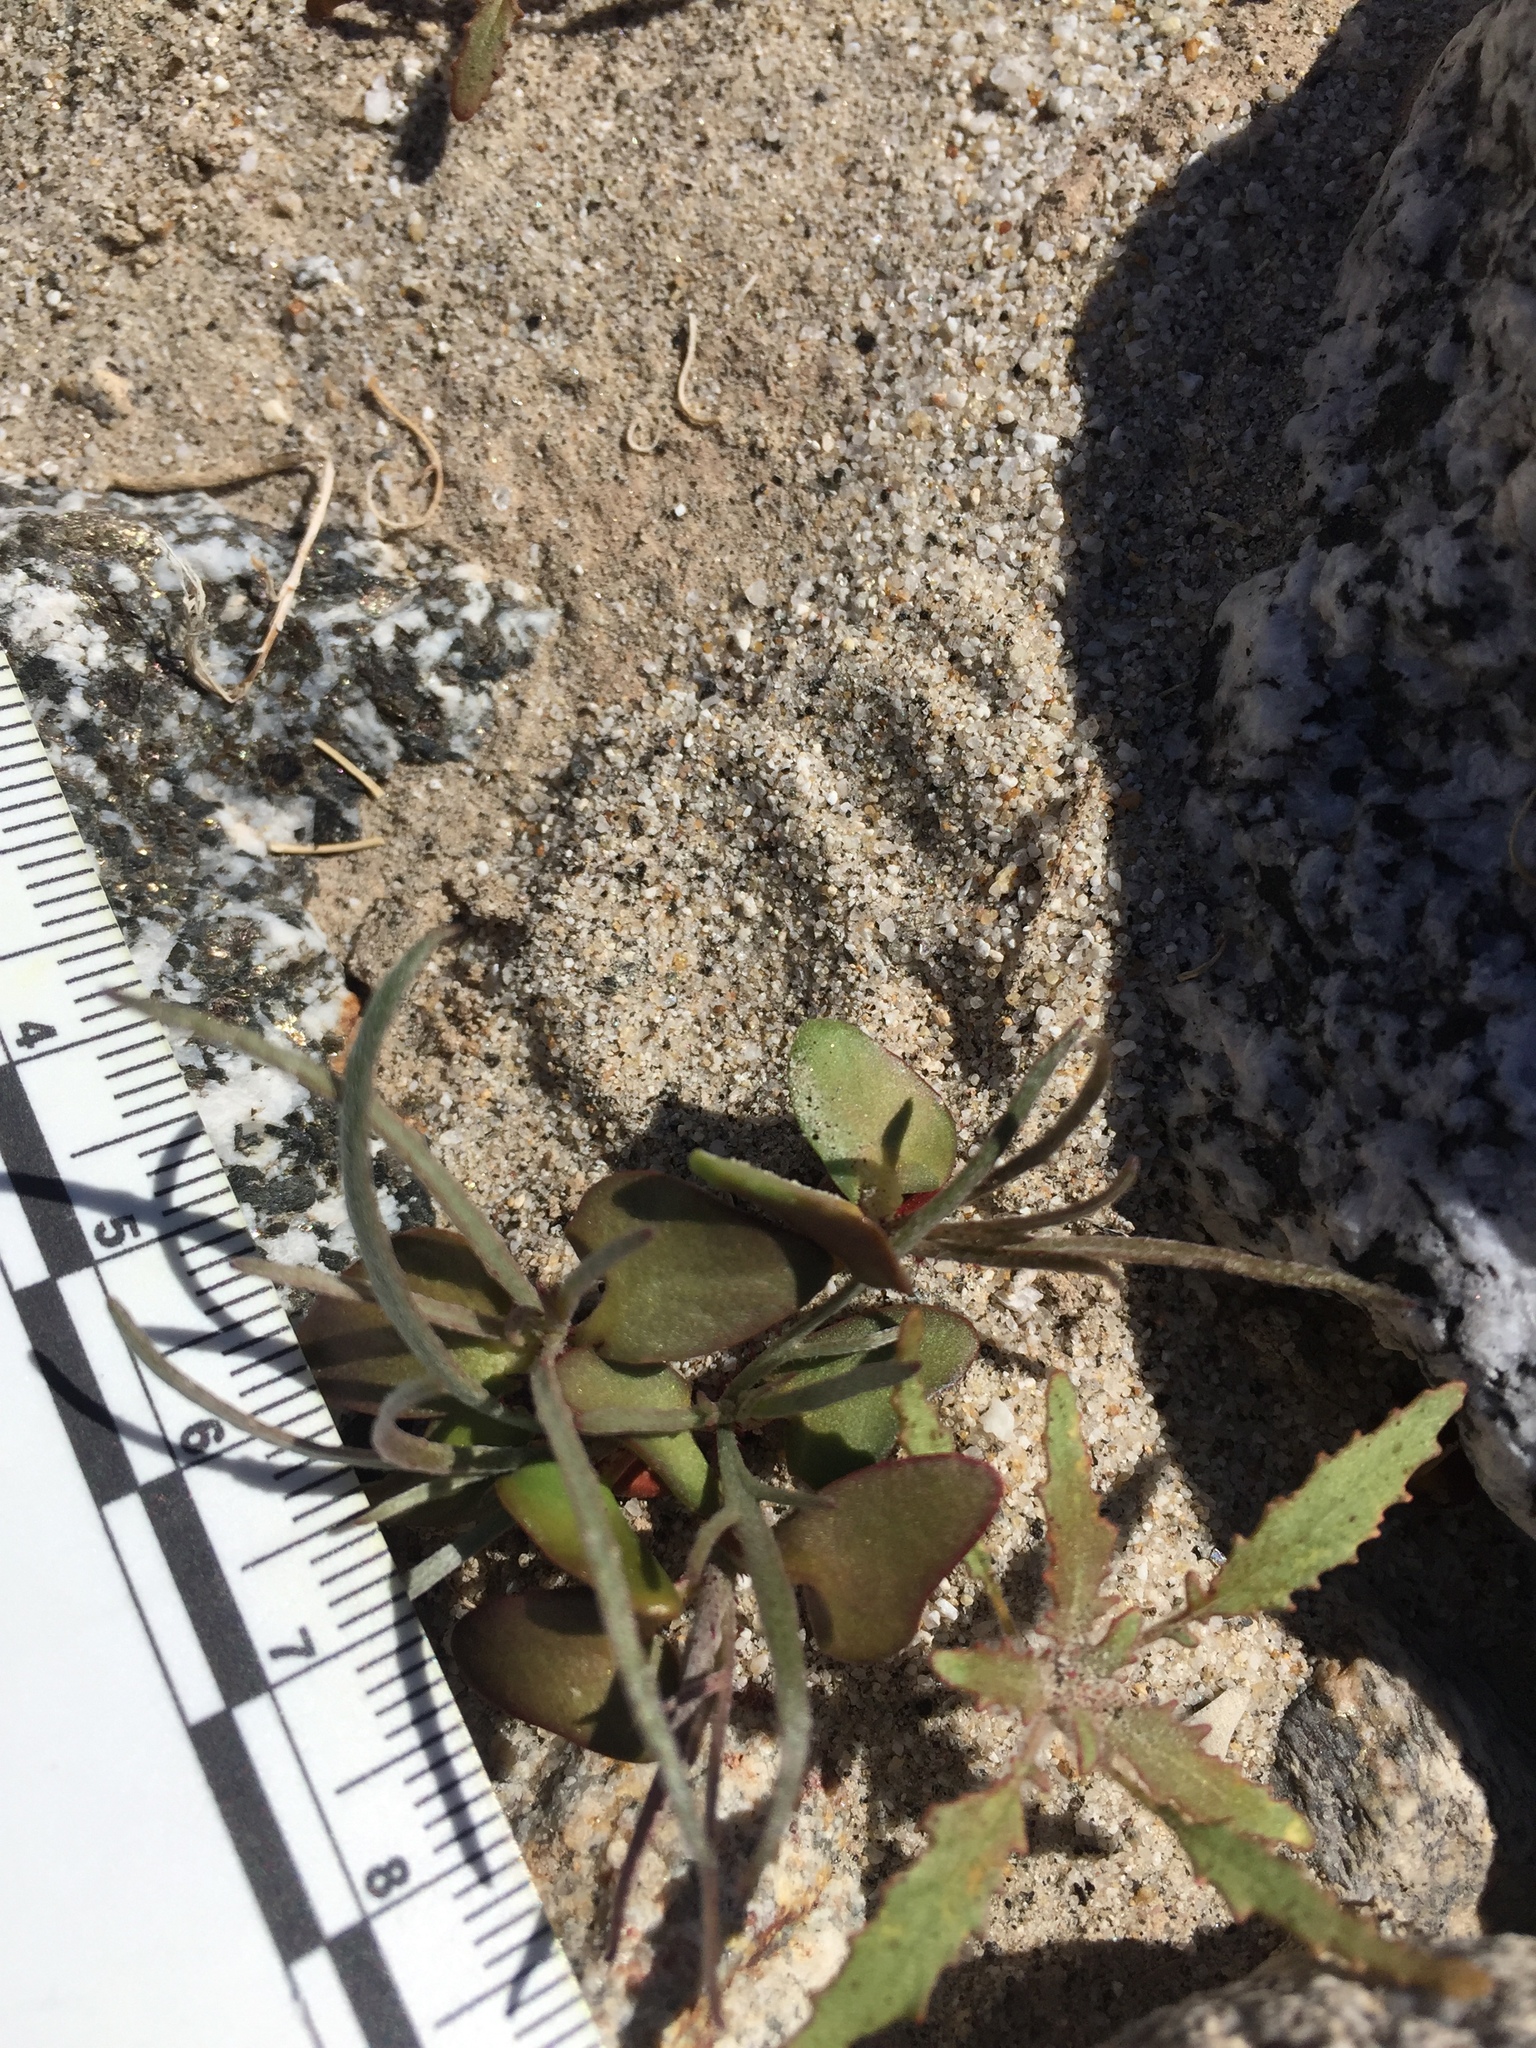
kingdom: Plantae
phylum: Tracheophyta
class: Magnoliopsida
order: Fabales
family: Fabaceae
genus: Psorothamnus
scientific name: Psorothamnus schottii
